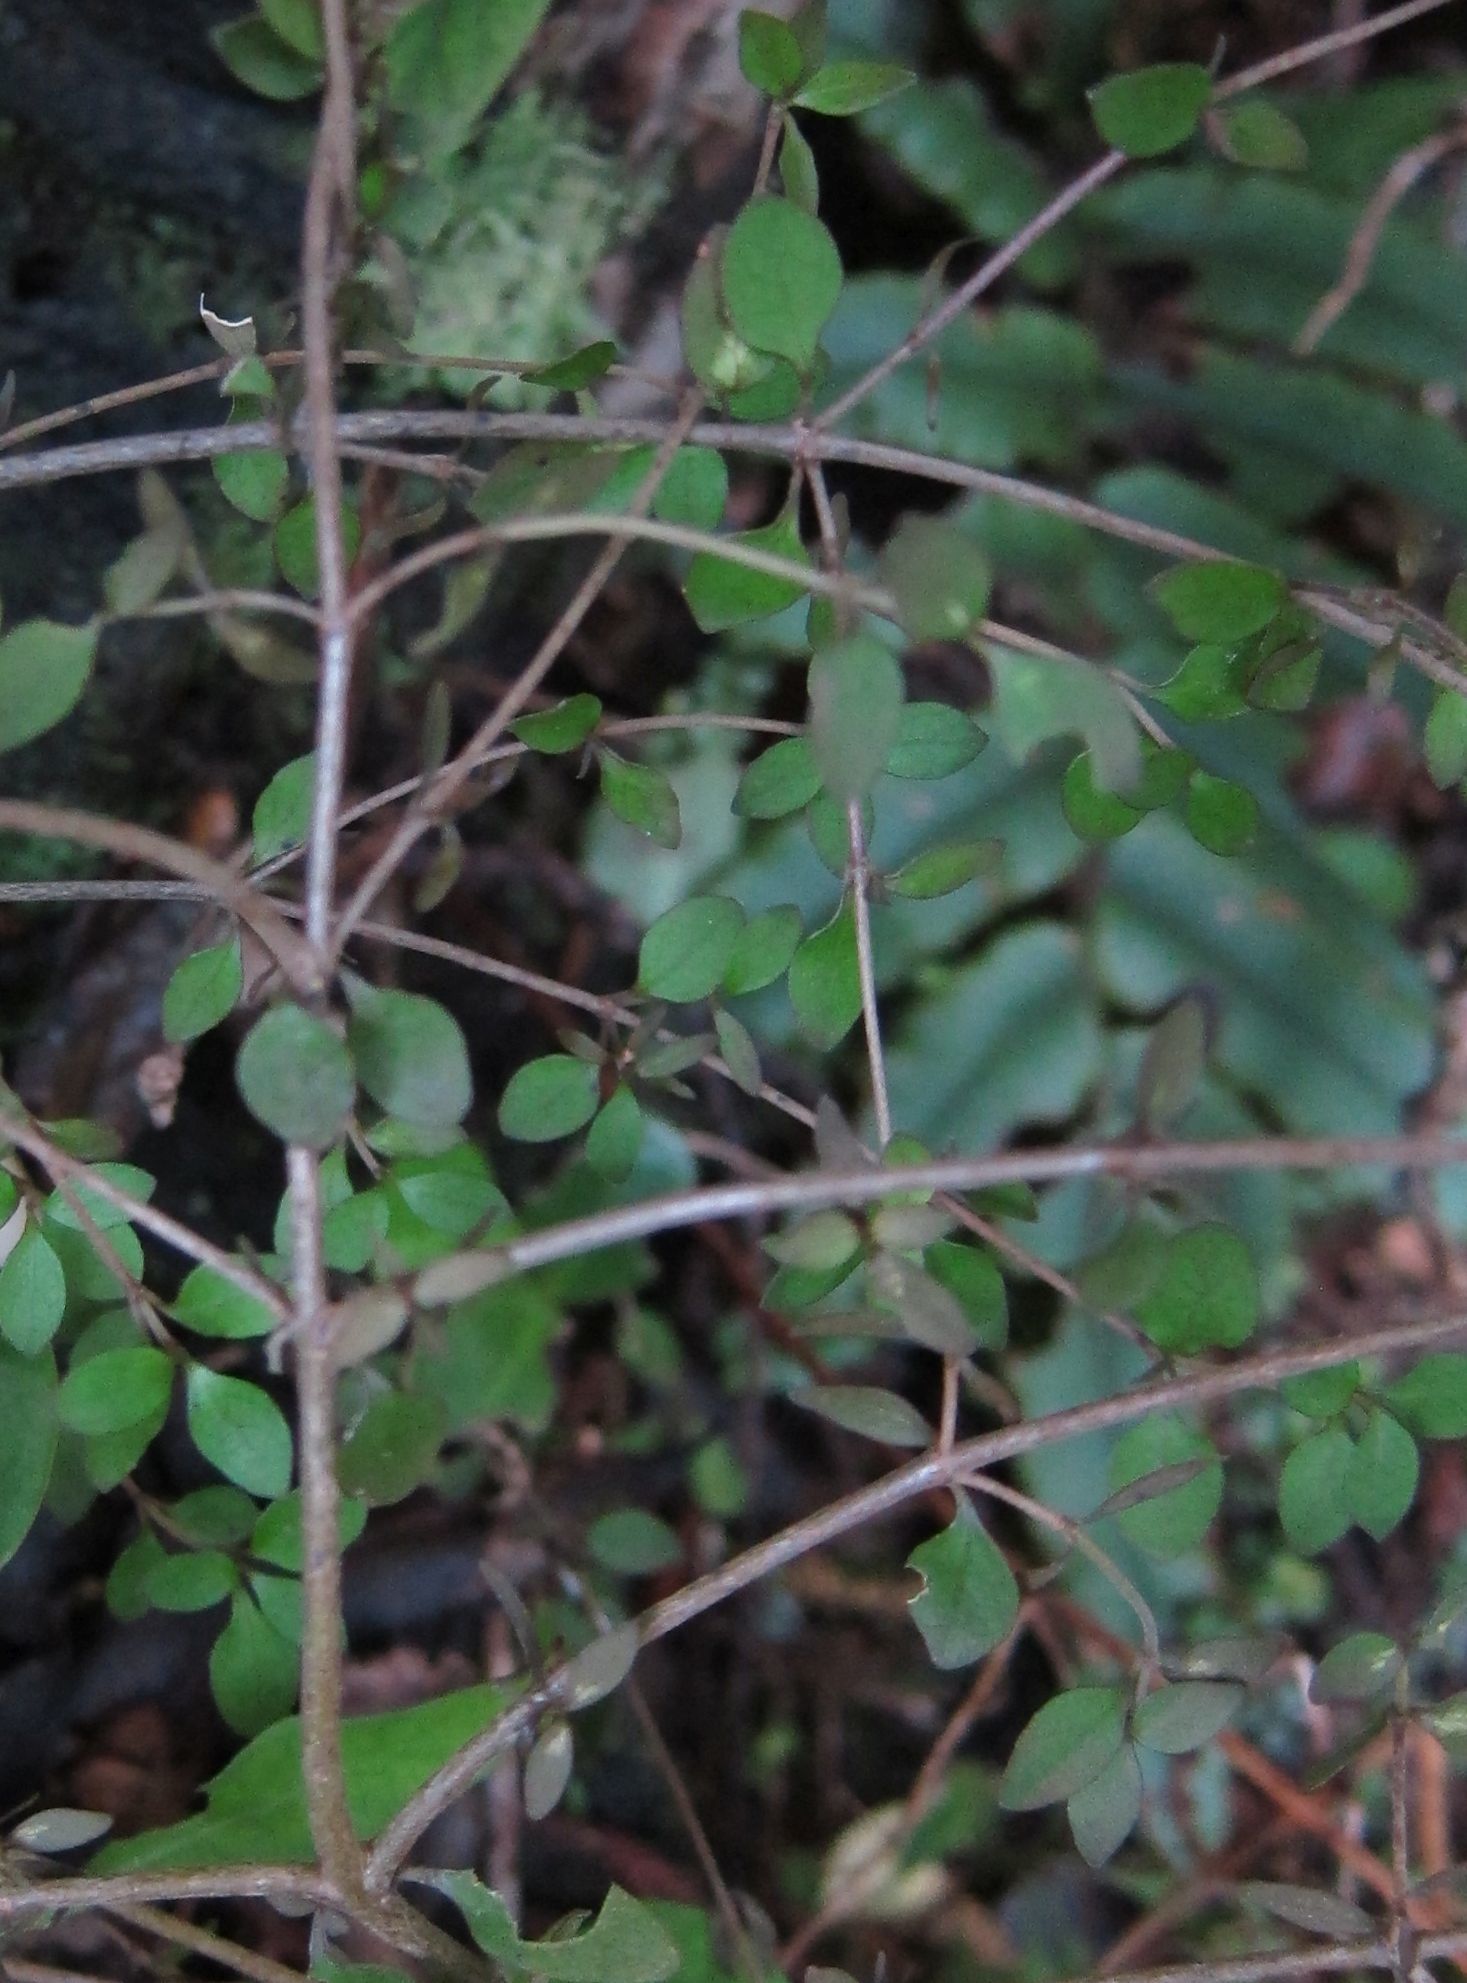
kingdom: Plantae
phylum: Tracheophyta
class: Magnoliopsida
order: Gentianales
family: Rubiaceae
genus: Coprosma
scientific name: Coprosma rhamnoides
